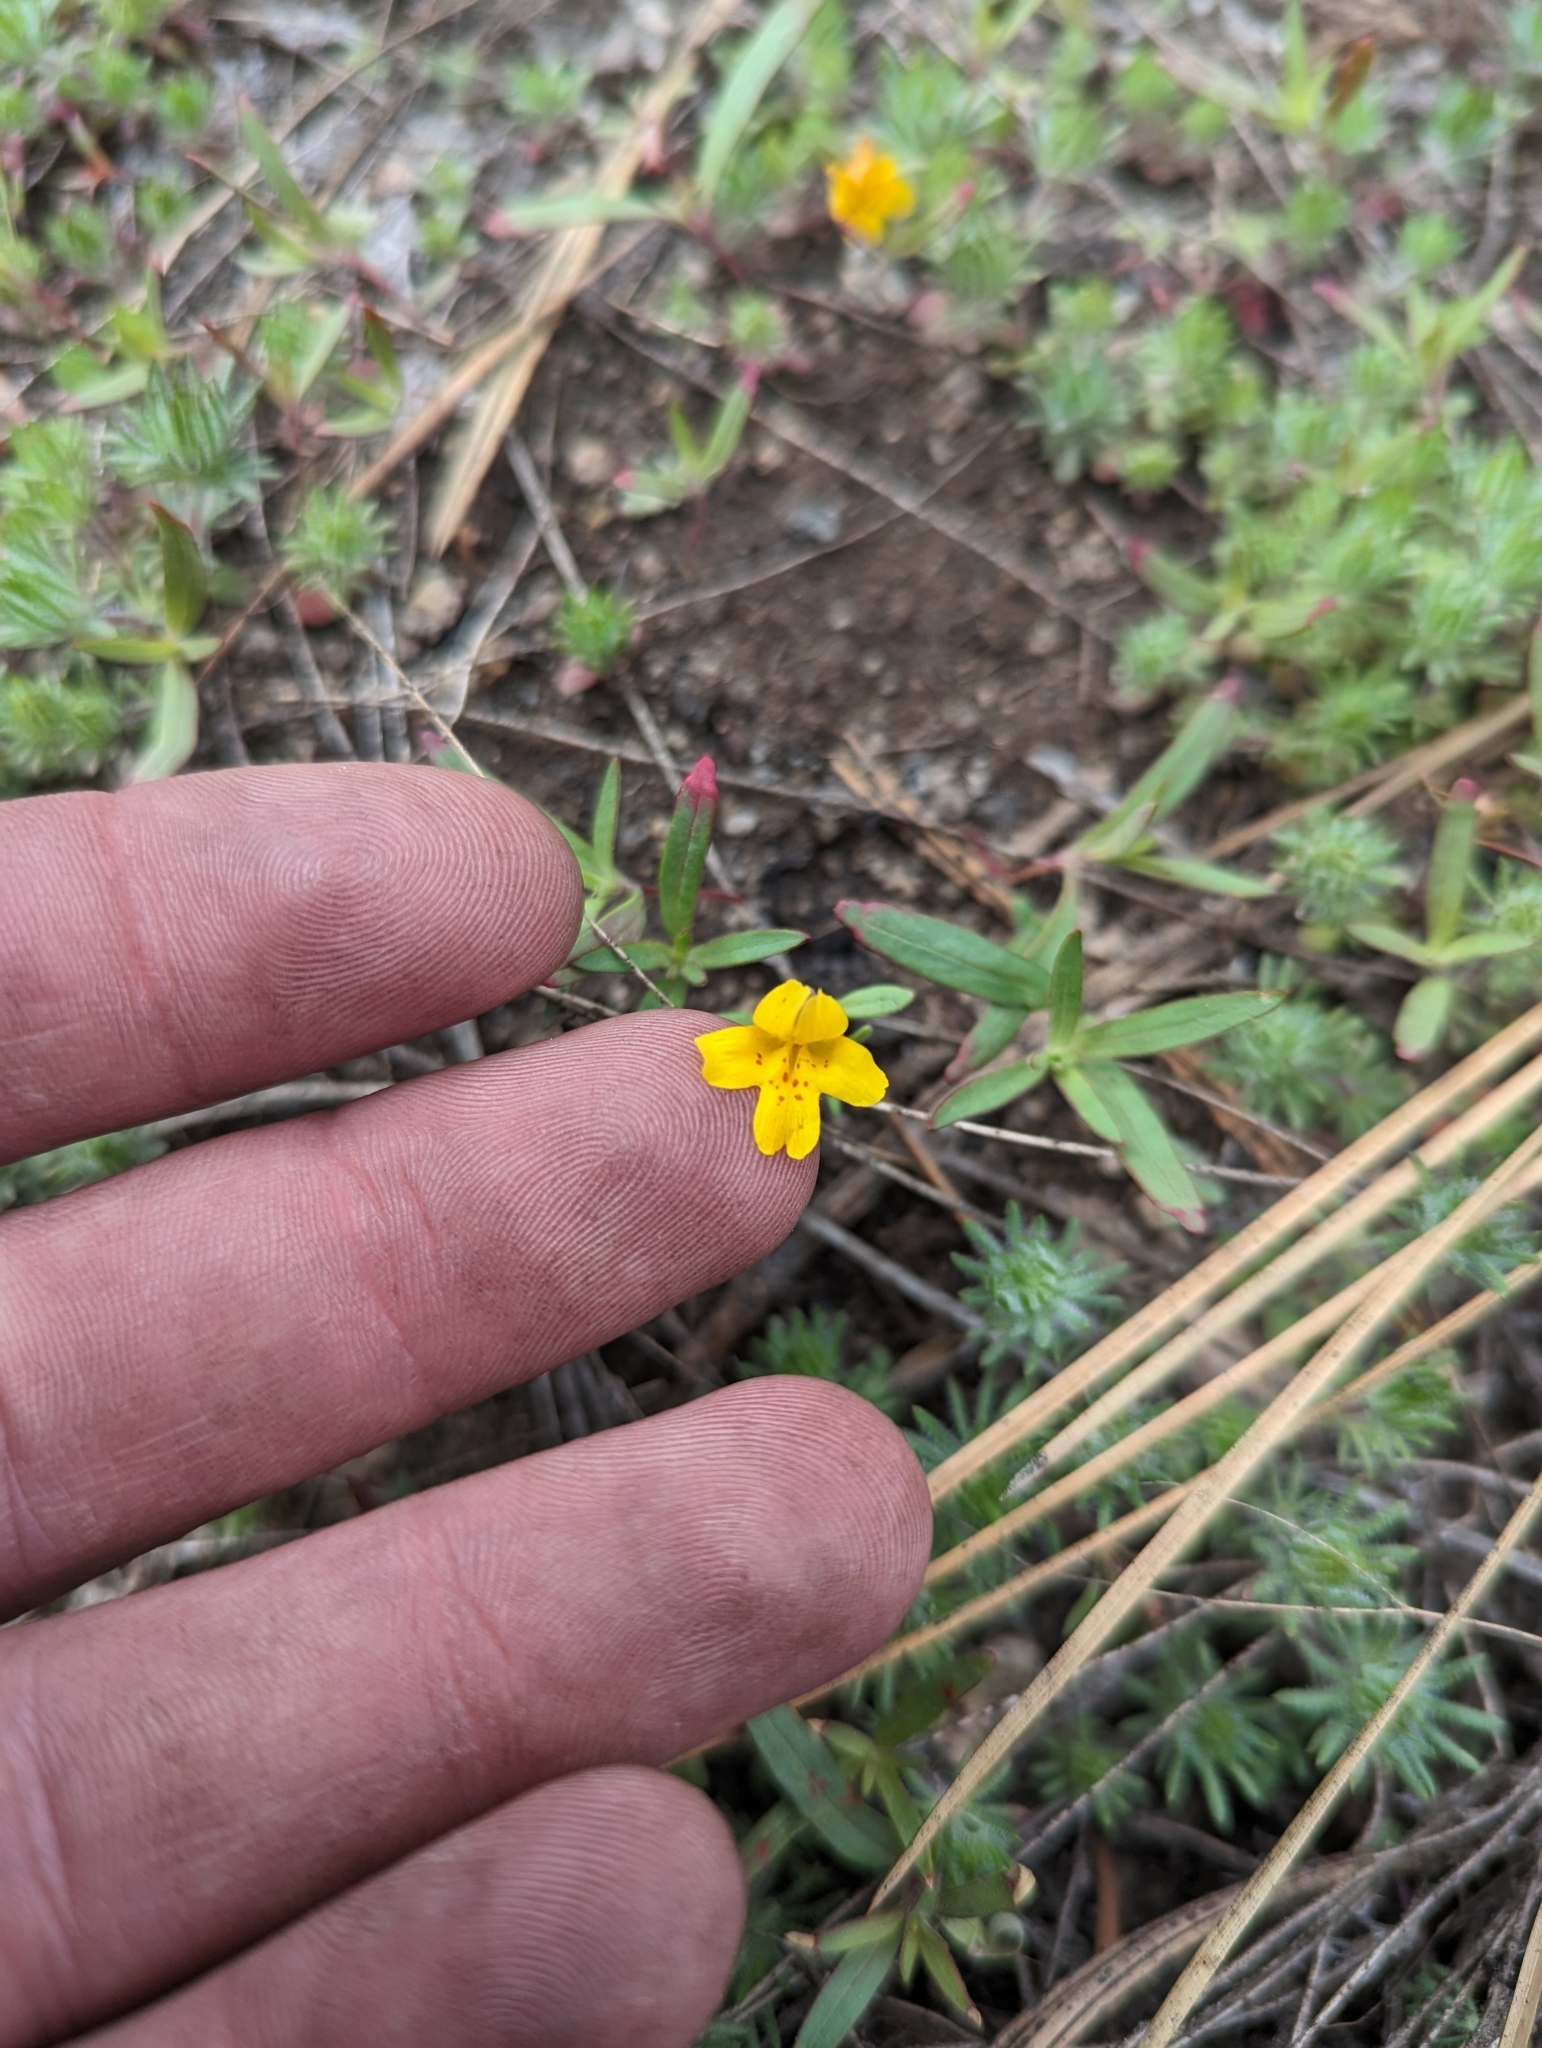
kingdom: Plantae
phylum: Tracheophyta
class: Magnoliopsida
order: Lamiales
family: Phrymaceae
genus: Erythranthe
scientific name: Erythranthe montioides
